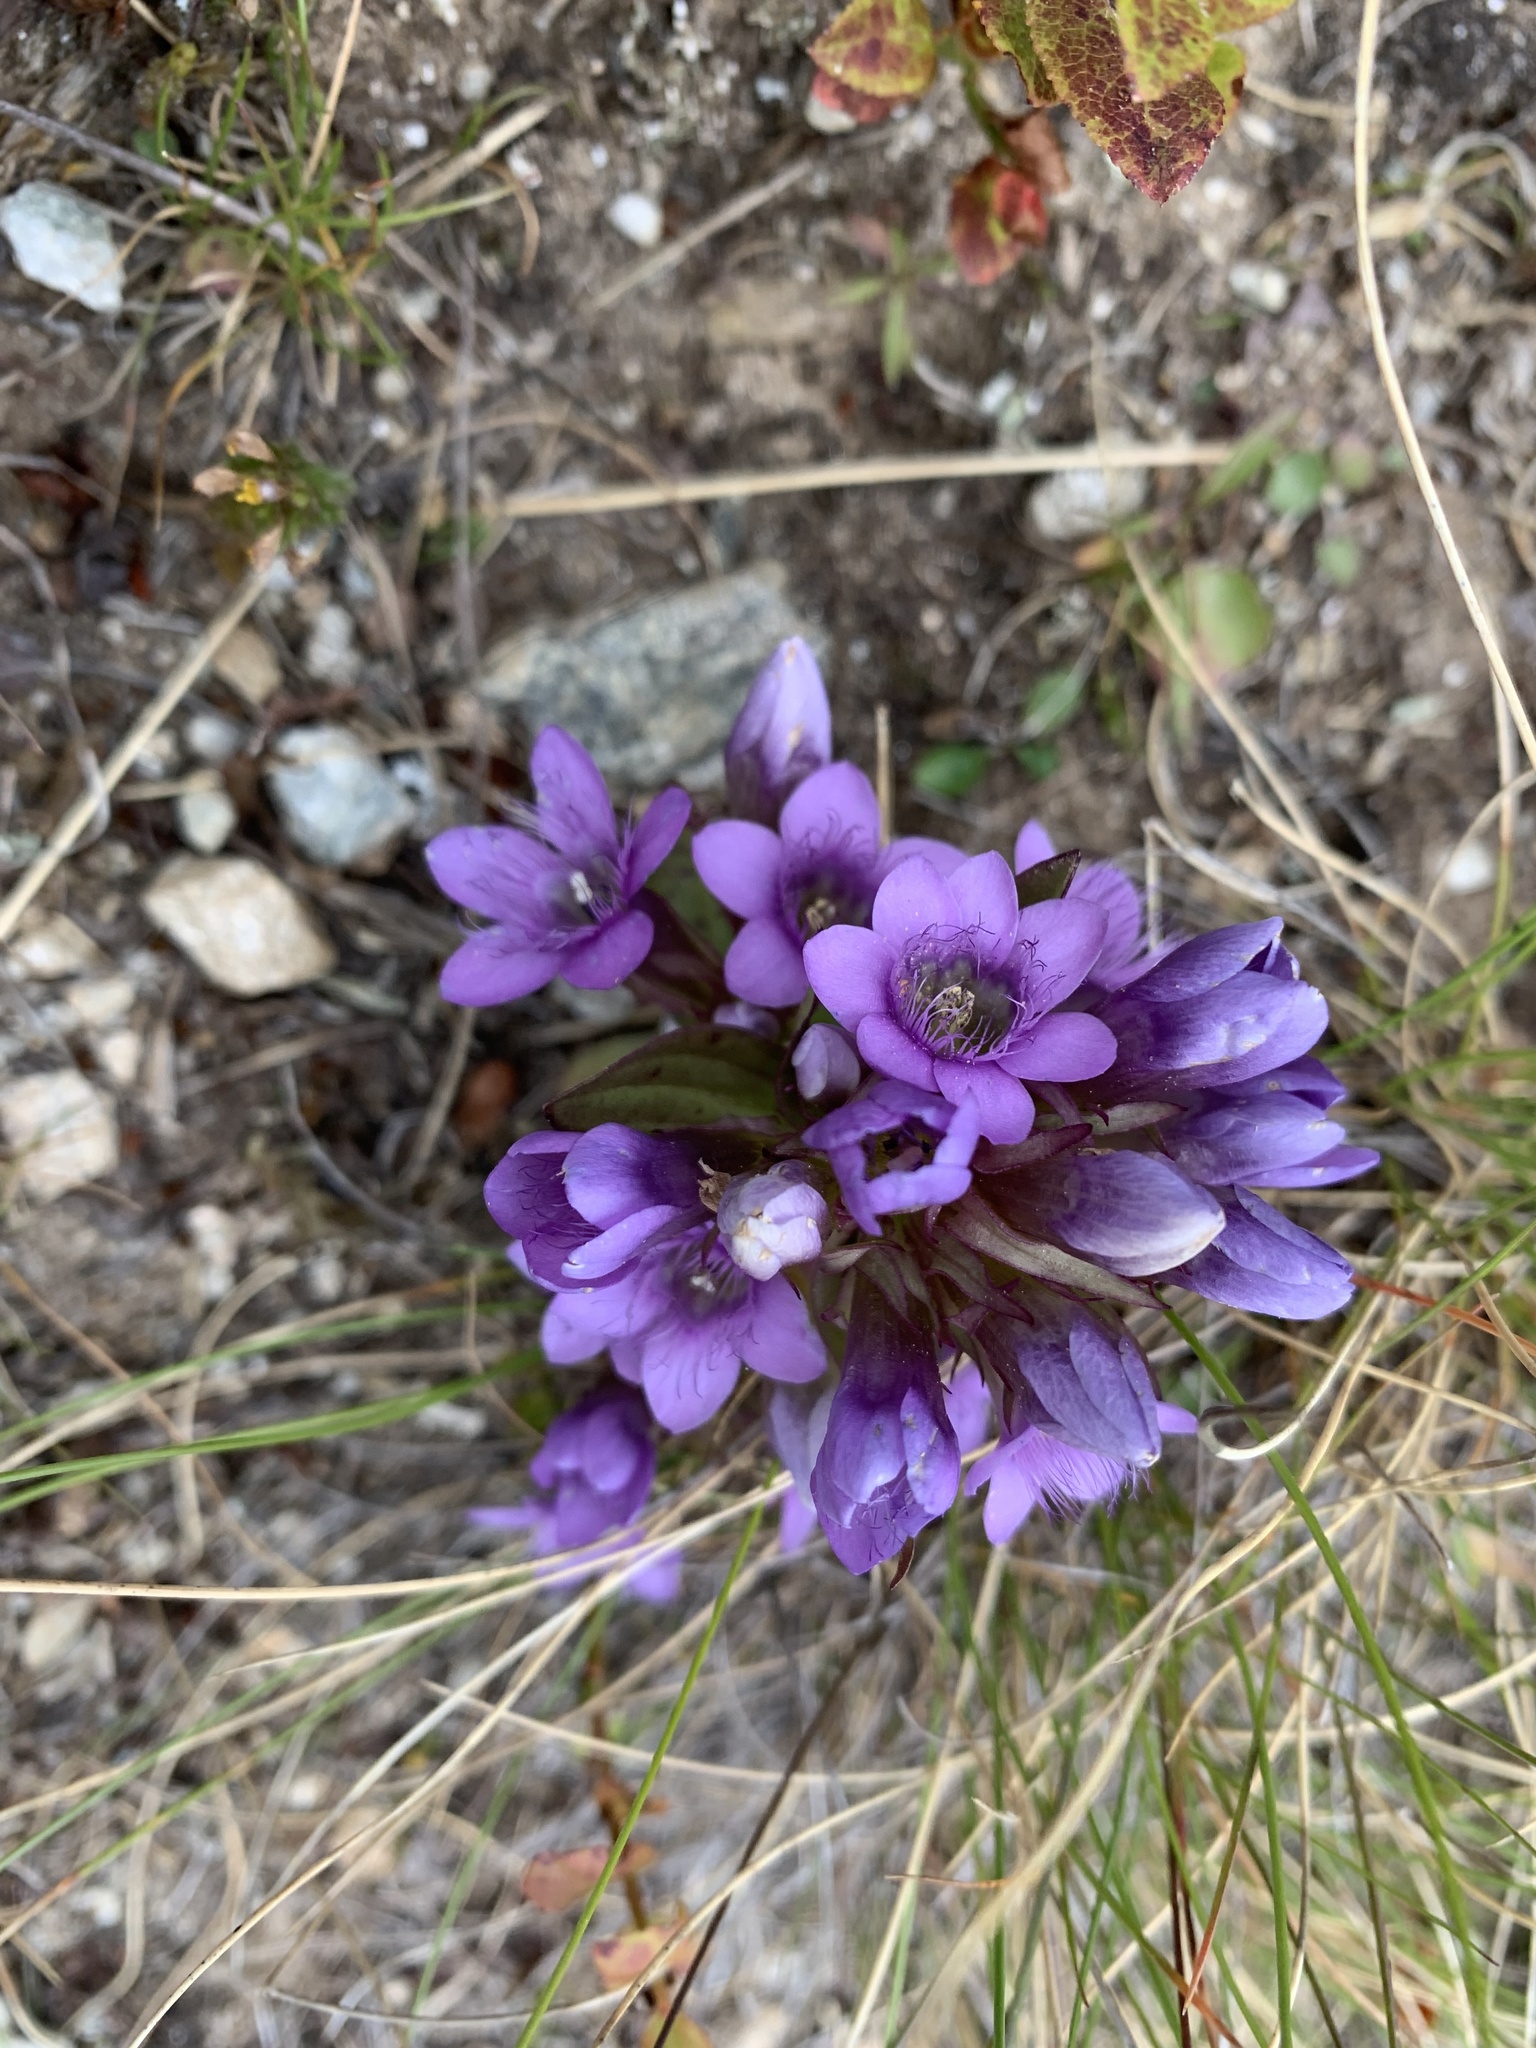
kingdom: Plantae
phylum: Tracheophyta
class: Magnoliopsida
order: Gentianales
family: Gentianaceae
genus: Gentianella
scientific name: Gentianella ramosa
